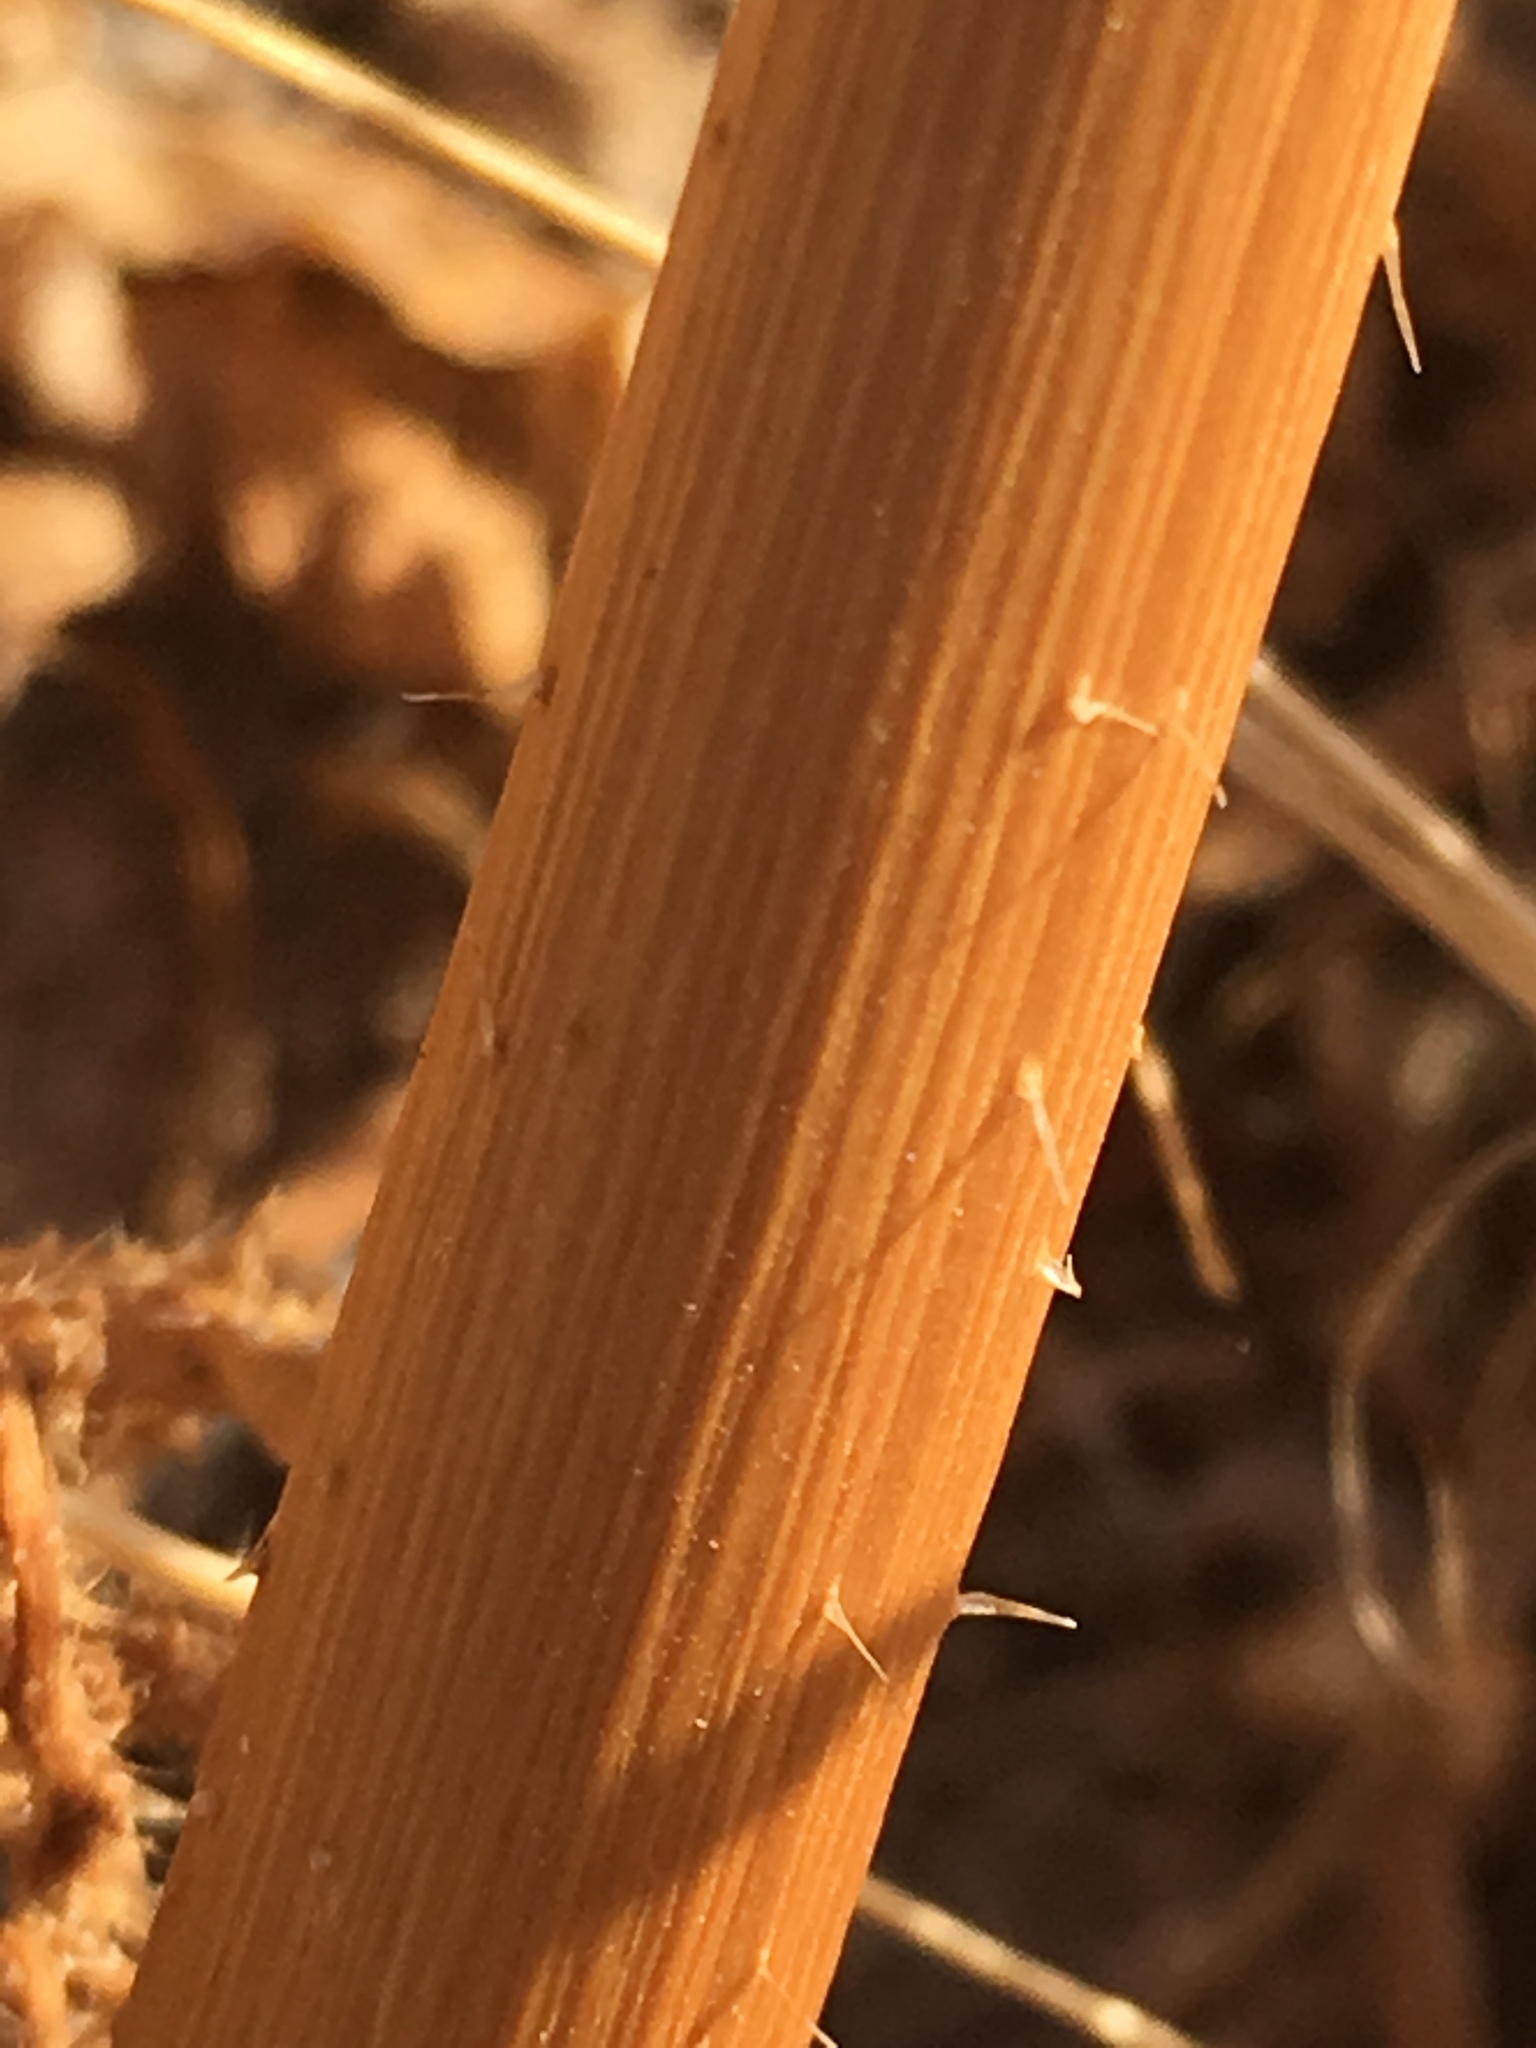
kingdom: Plantae
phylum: Tracheophyta
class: Magnoliopsida
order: Brassicales
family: Brassicaceae
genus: Brassica
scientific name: Brassica tournefortii
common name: Pale cabbage
